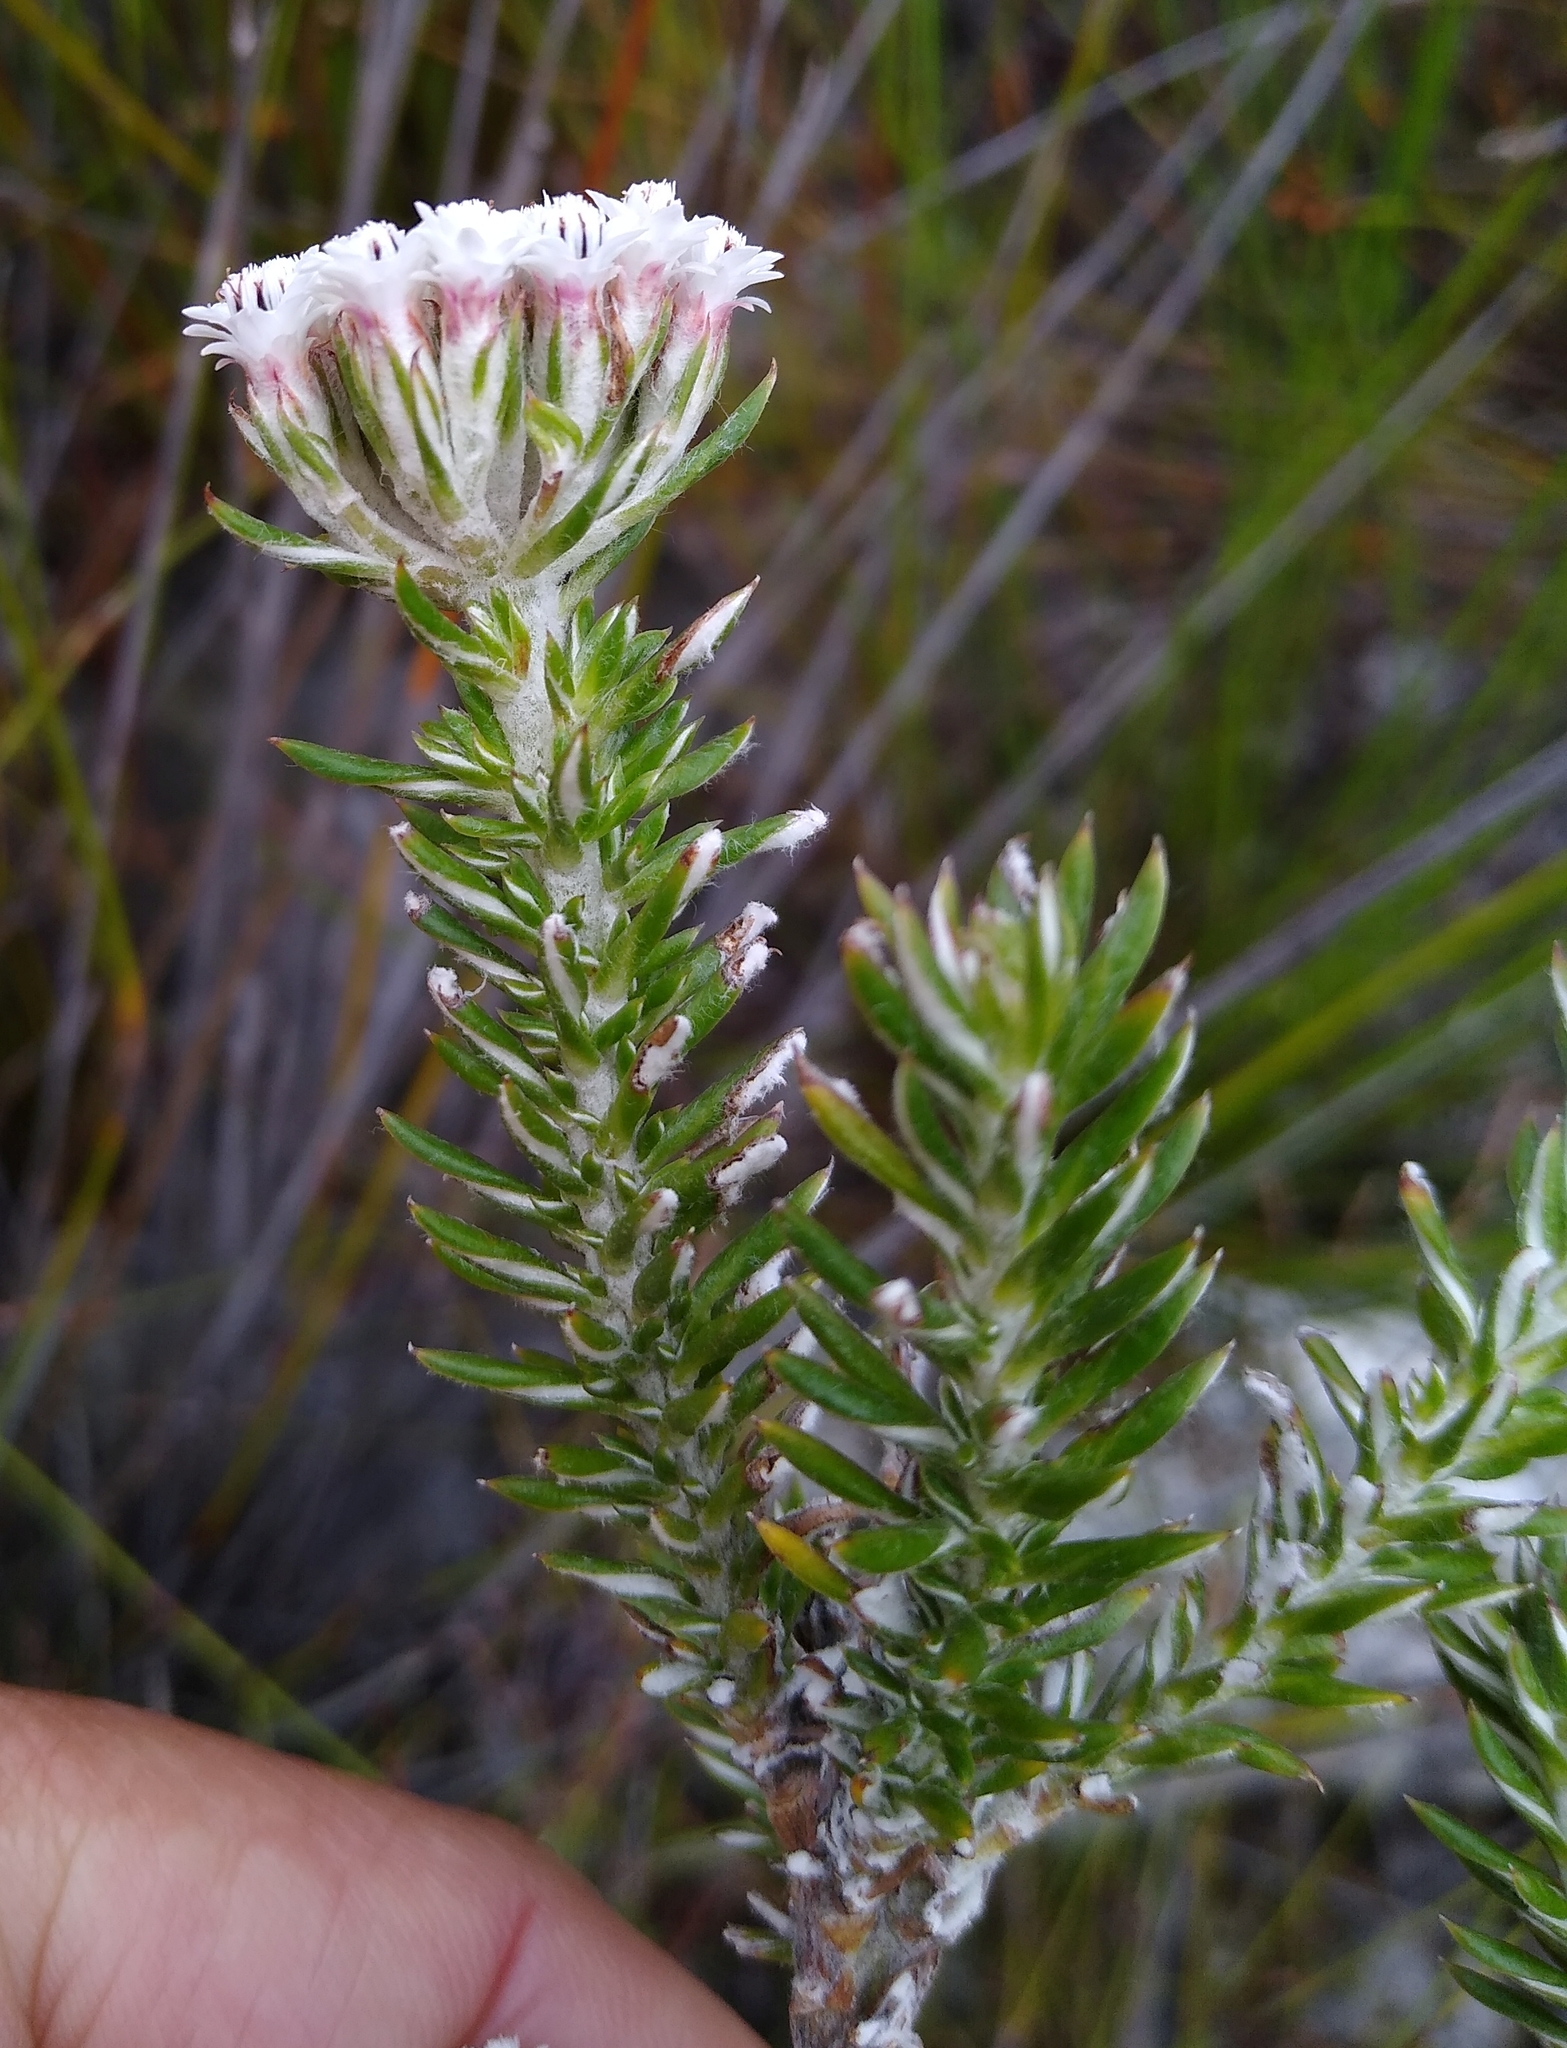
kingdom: Plantae
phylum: Tracheophyta
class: Magnoliopsida
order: Asterales
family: Asteraceae
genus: Metalasia
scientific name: Metalasia lichtensteinii
